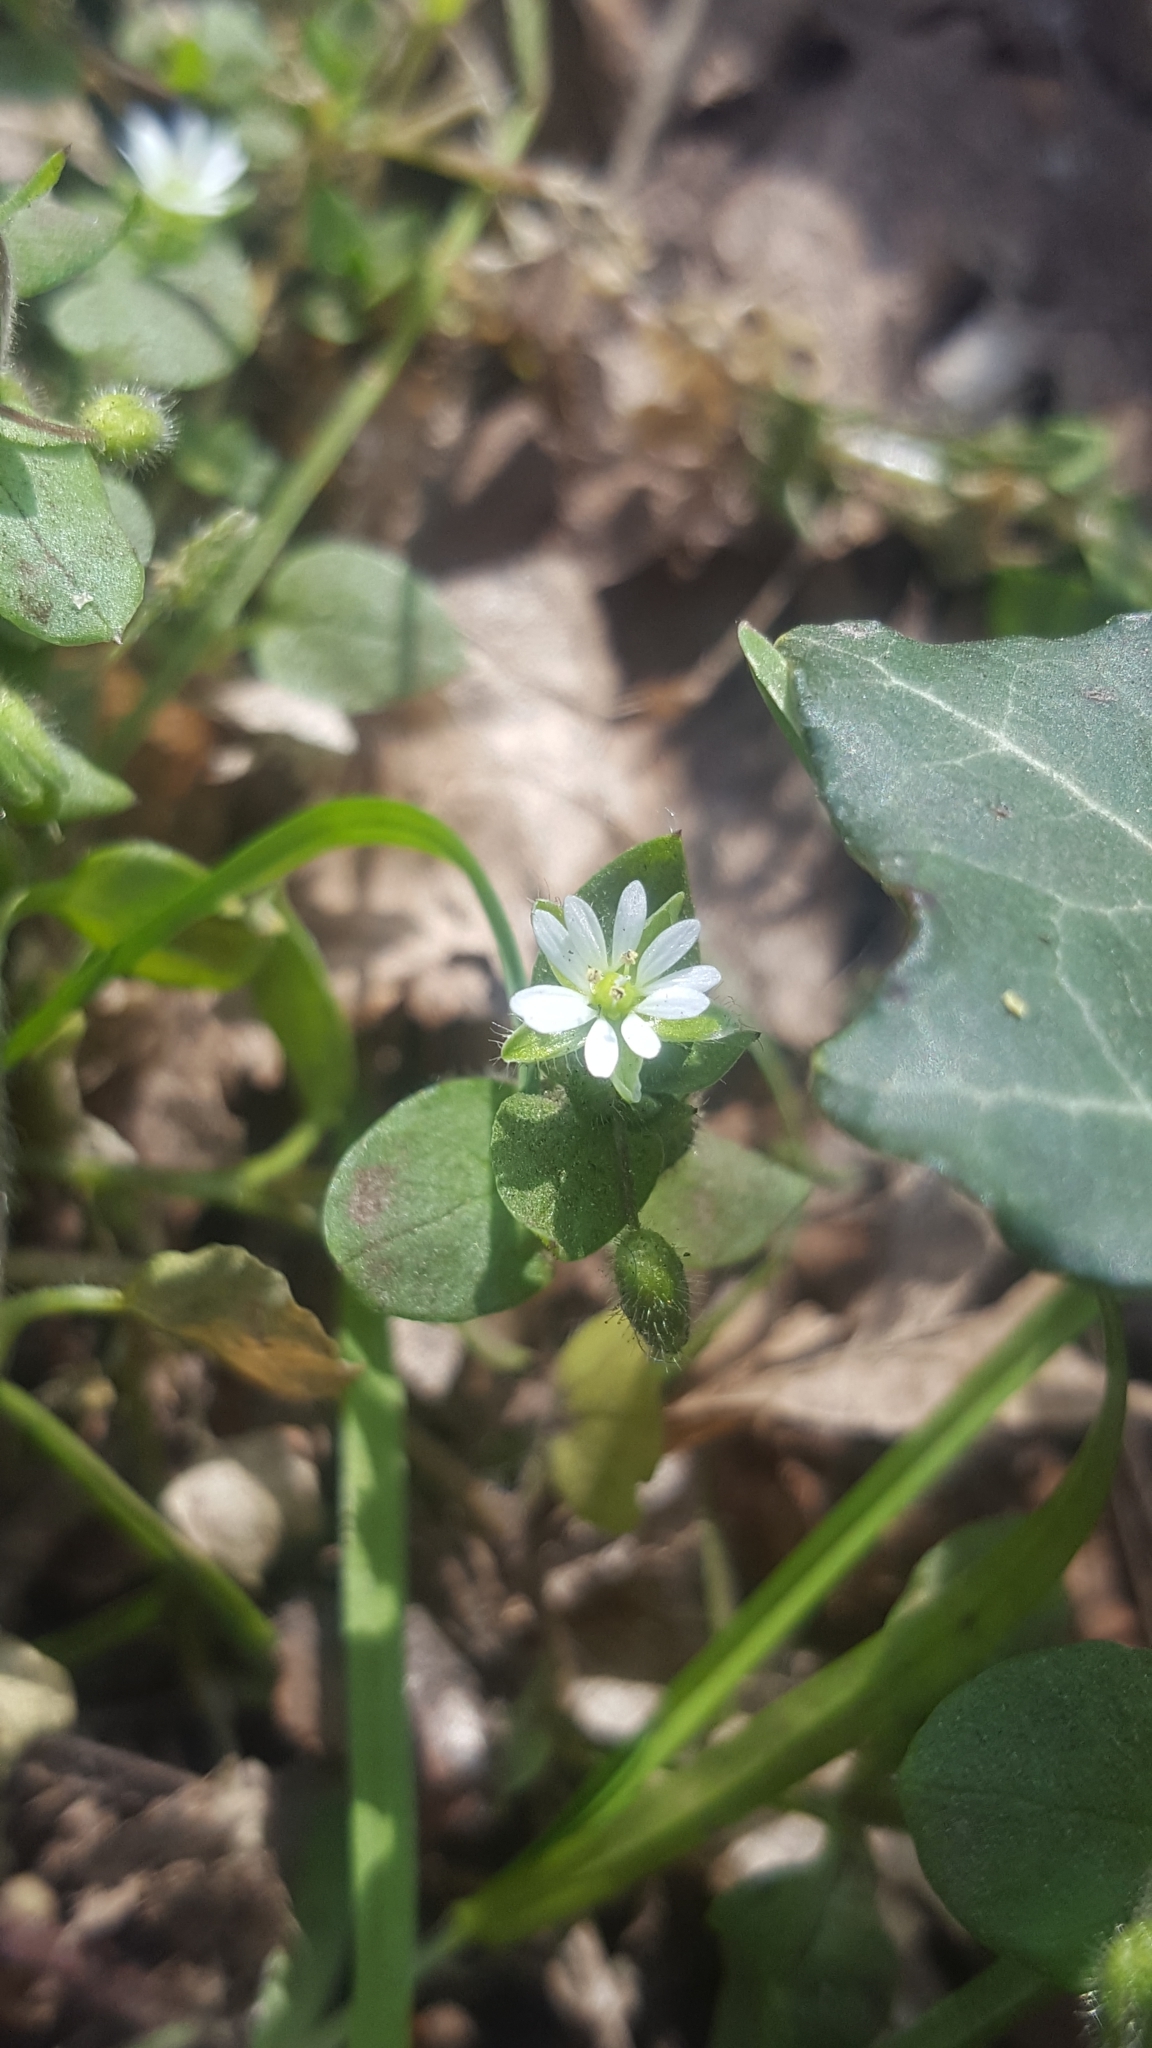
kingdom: Plantae
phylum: Tracheophyta
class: Magnoliopsida
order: Caryophyllales
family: Caryophyllaceae
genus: Stellaria
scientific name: Stellaria media
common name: Common chickweed
